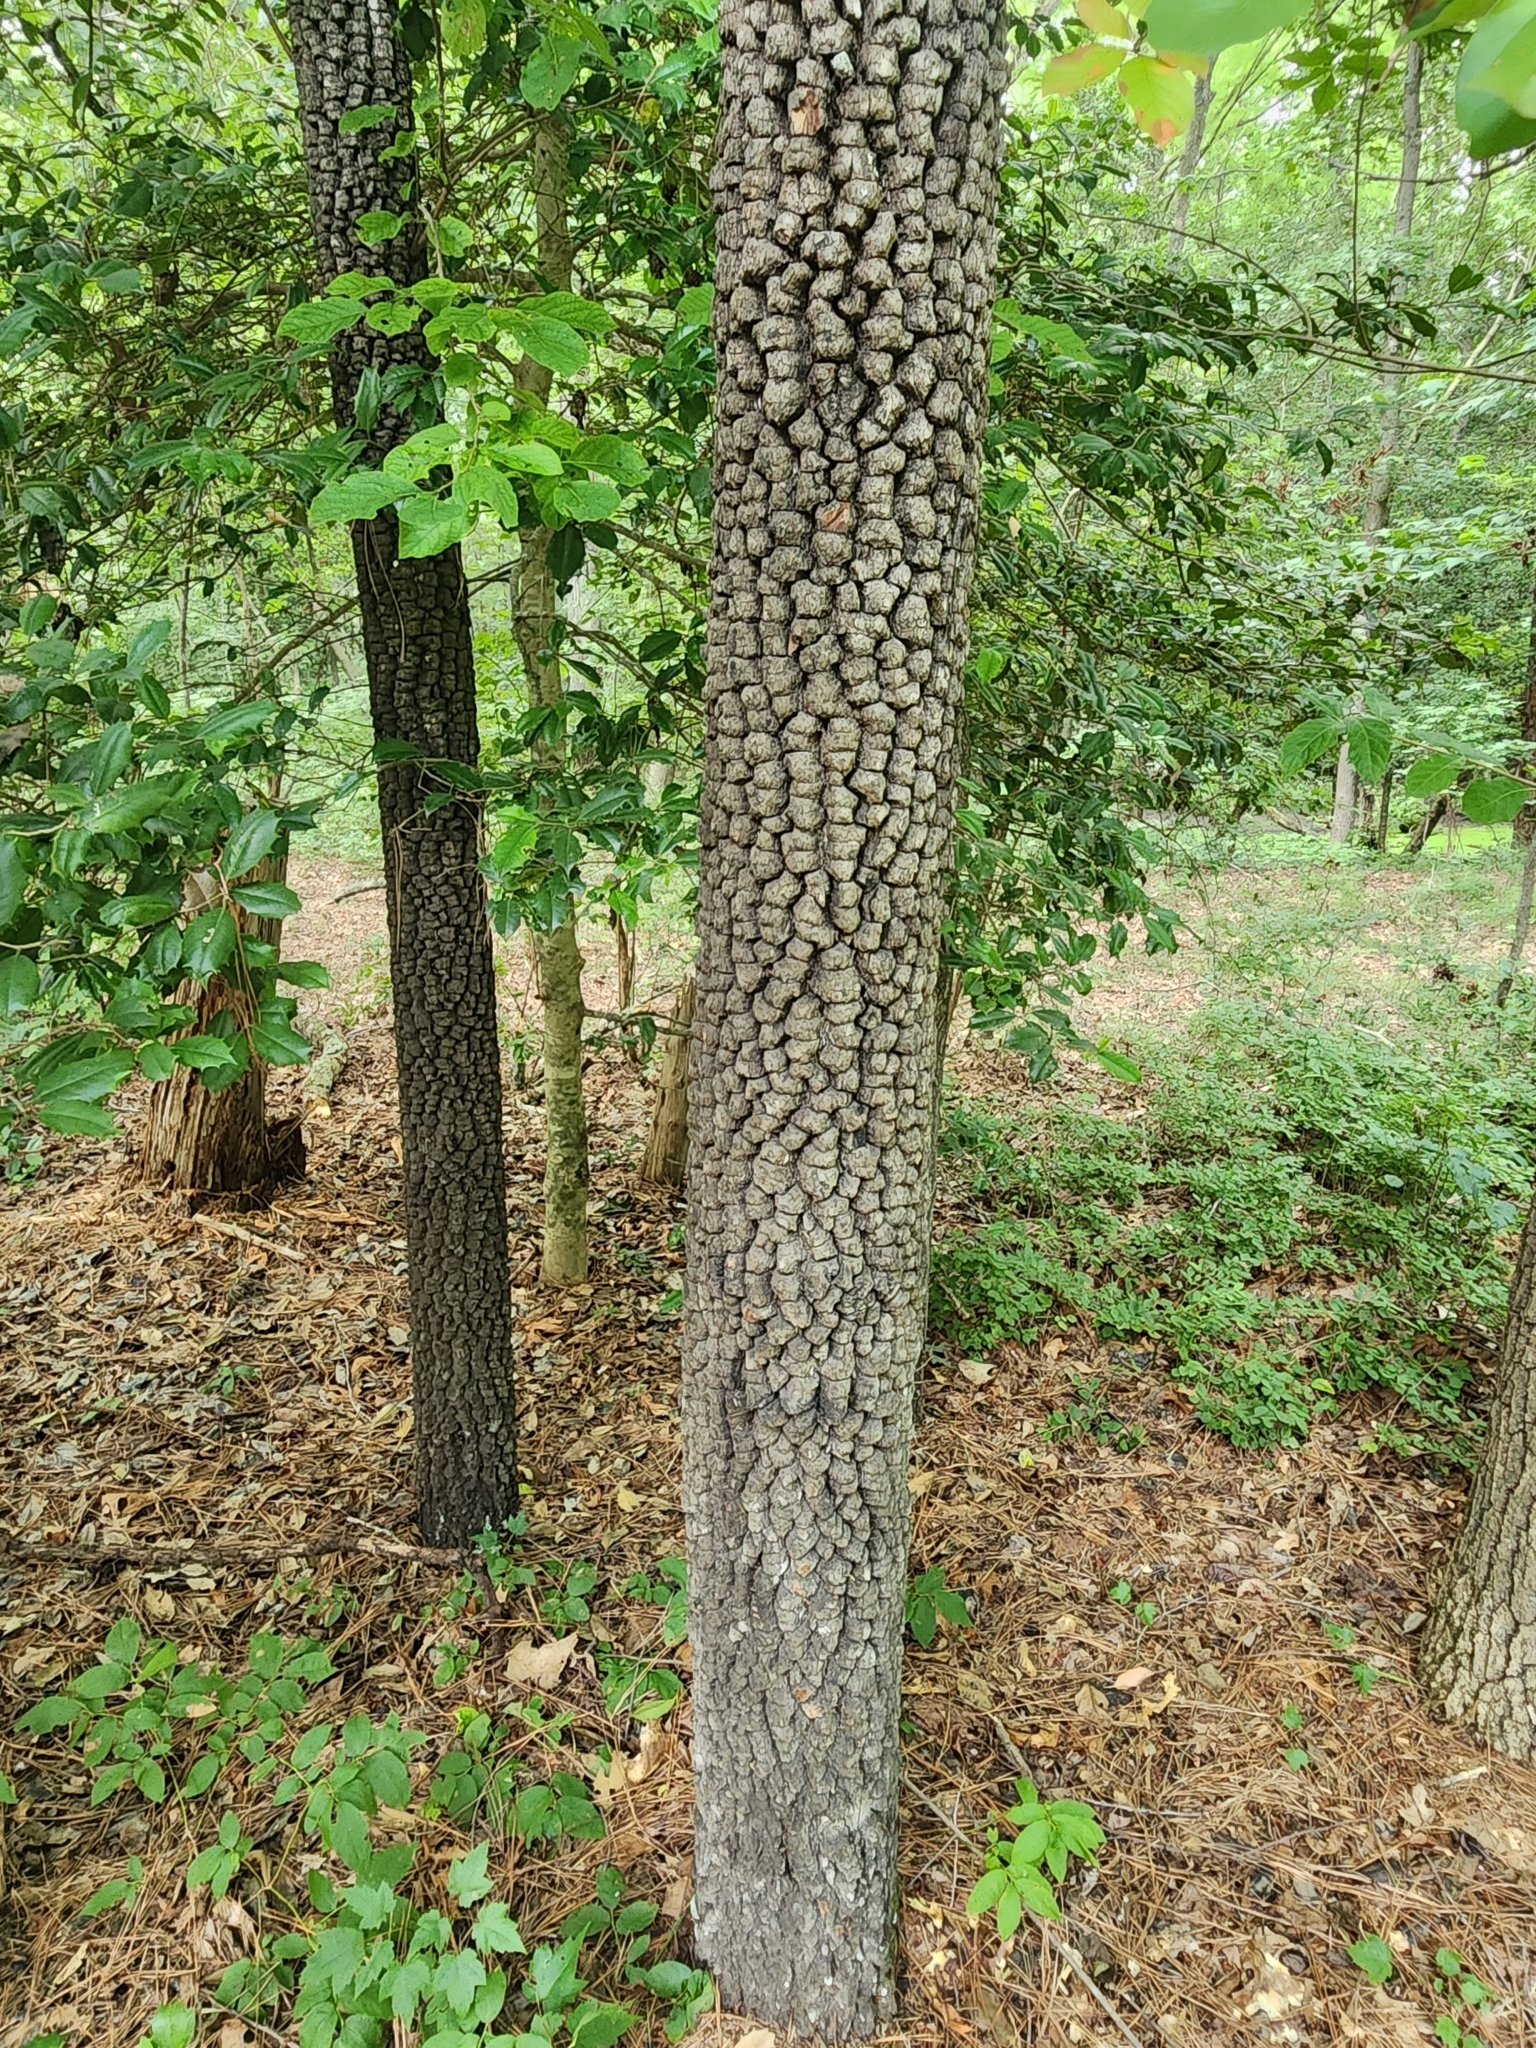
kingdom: Plantae
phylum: Tracheophyta
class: Magnoliopsida
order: Ericales
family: Ebenaceae
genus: Diospyros
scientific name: Diospyros virginiana
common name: Persimmon
